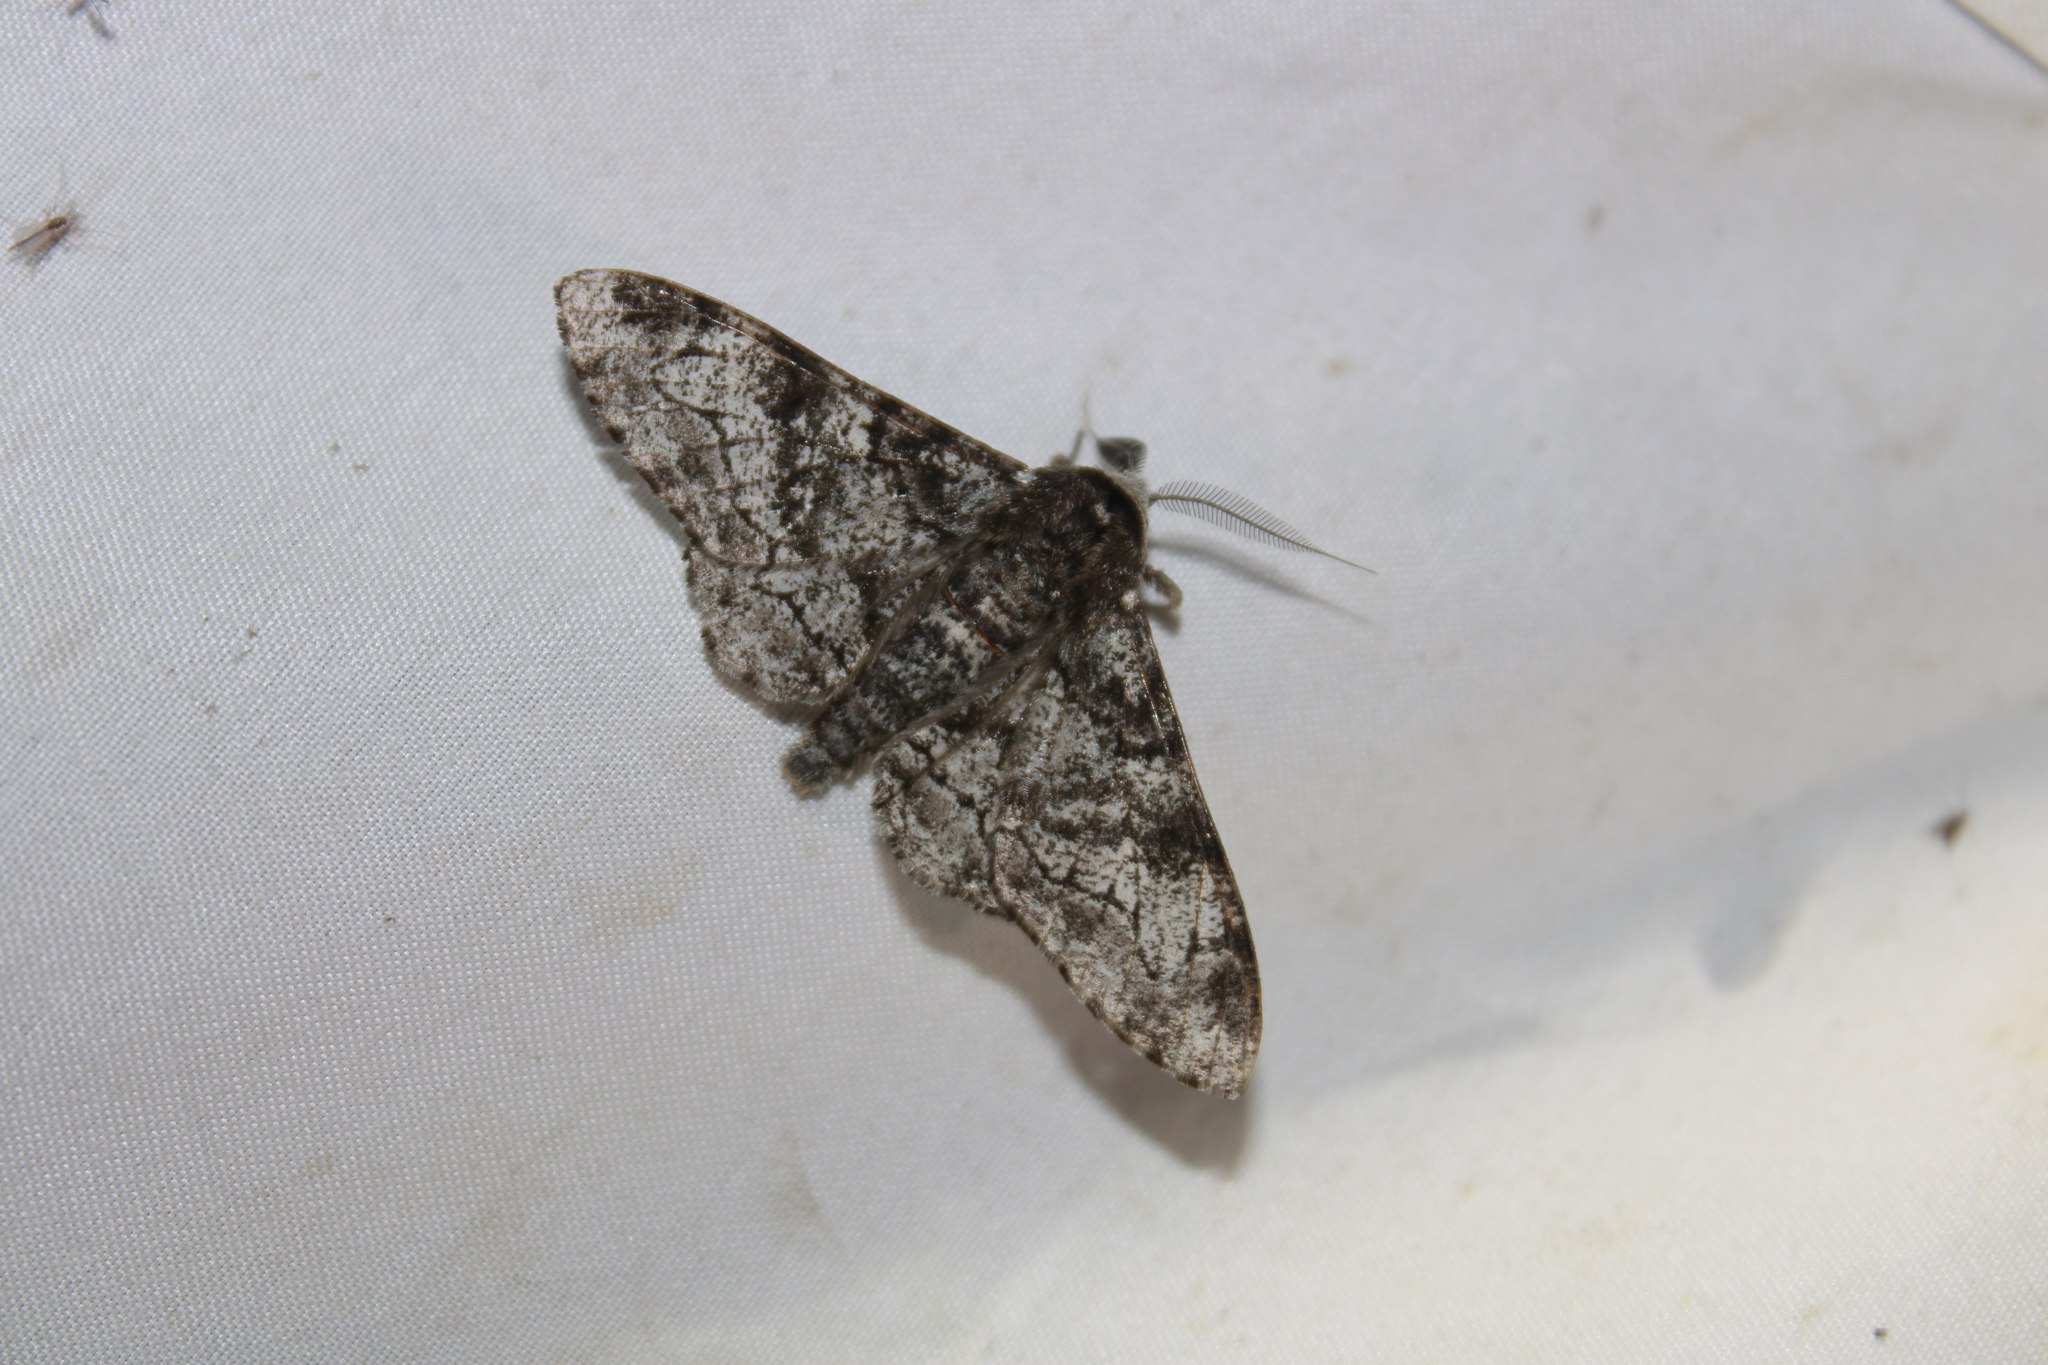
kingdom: Animalia
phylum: Arthropoda
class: Insecta
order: Lepidoptera
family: Geometridae
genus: Biston
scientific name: Biston betularia
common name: Peppered moth
